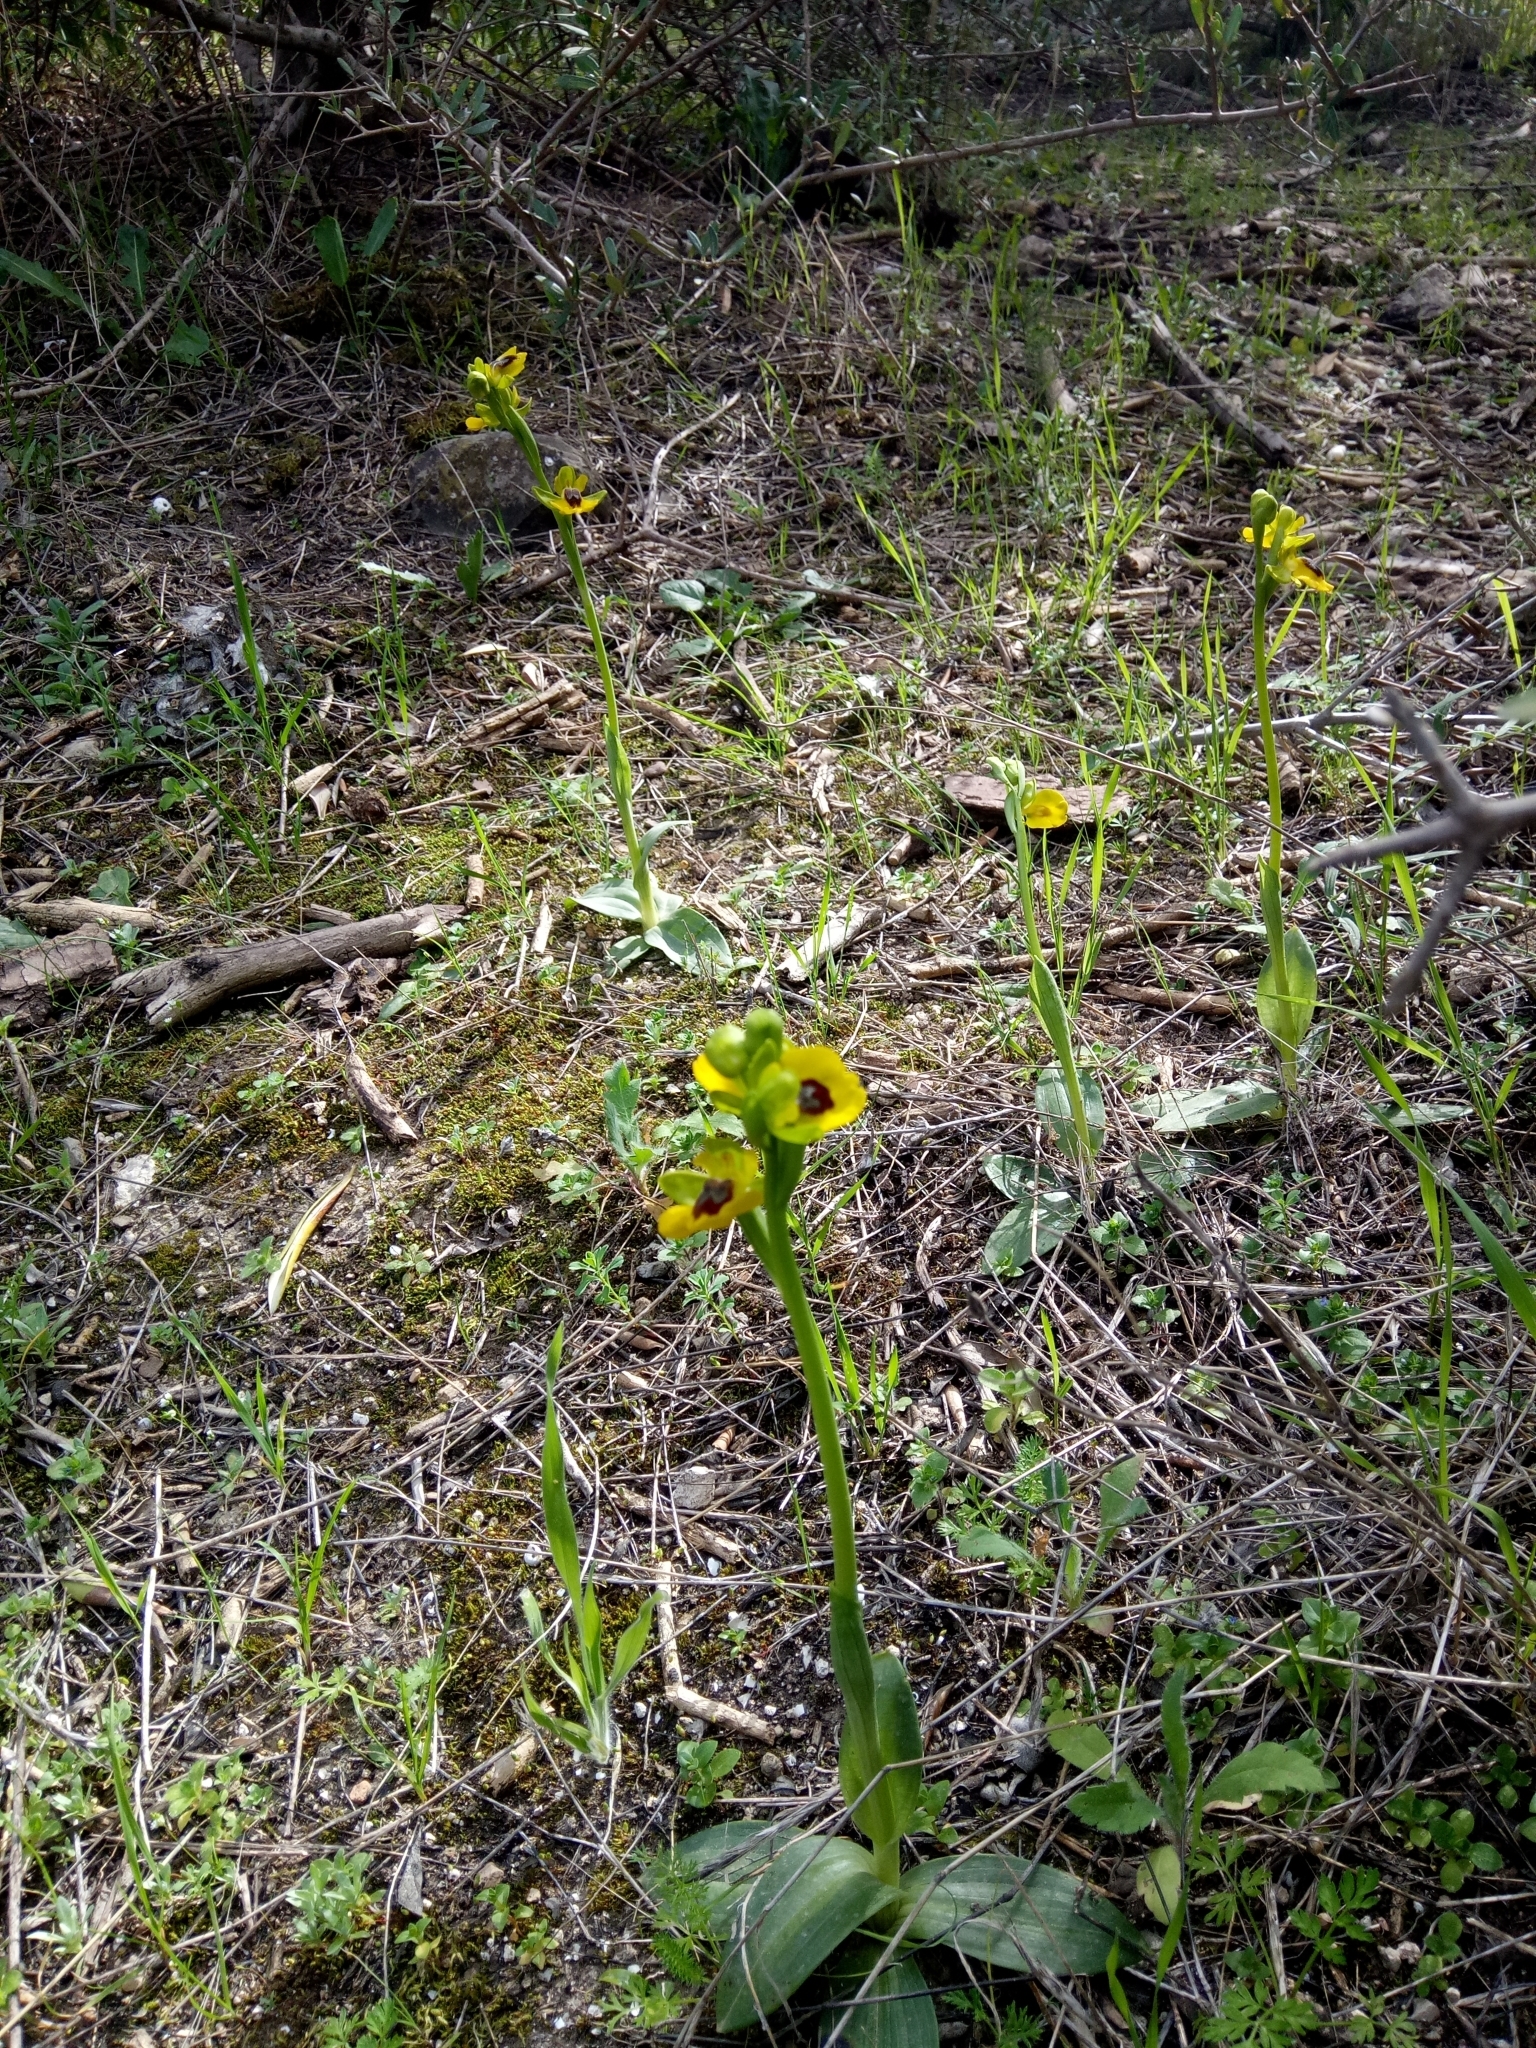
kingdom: Plantae
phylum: Tracheophyta
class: Liliopsida
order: Asparagales
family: Orchidaceae
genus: Ophrys
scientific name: Ophrys lutea
